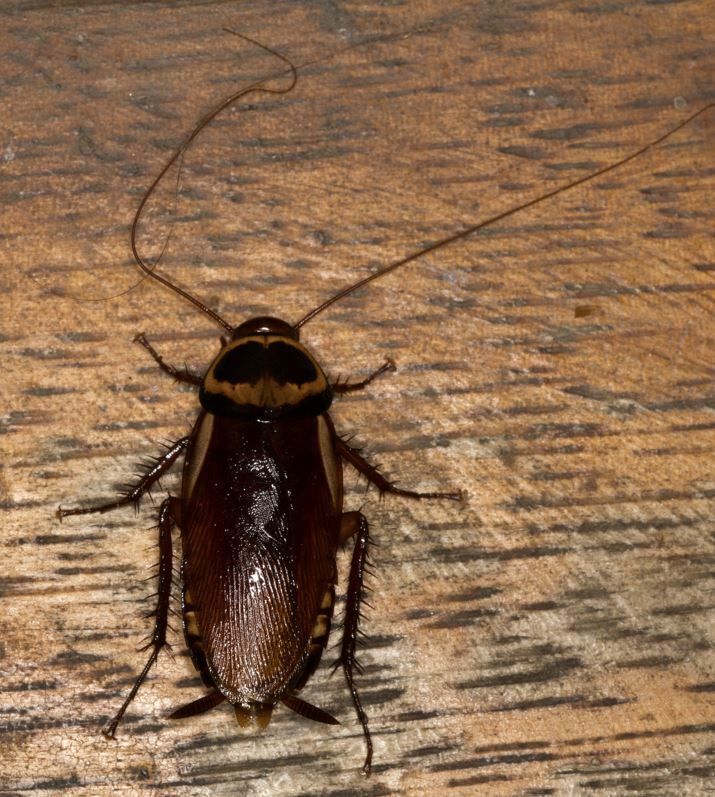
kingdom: Animalia
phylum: Arthropoda
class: Insecta
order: Blattodea
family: Blattidae
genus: Periplaneta
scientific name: Periplaneta australasiae
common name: Australian cockroach
